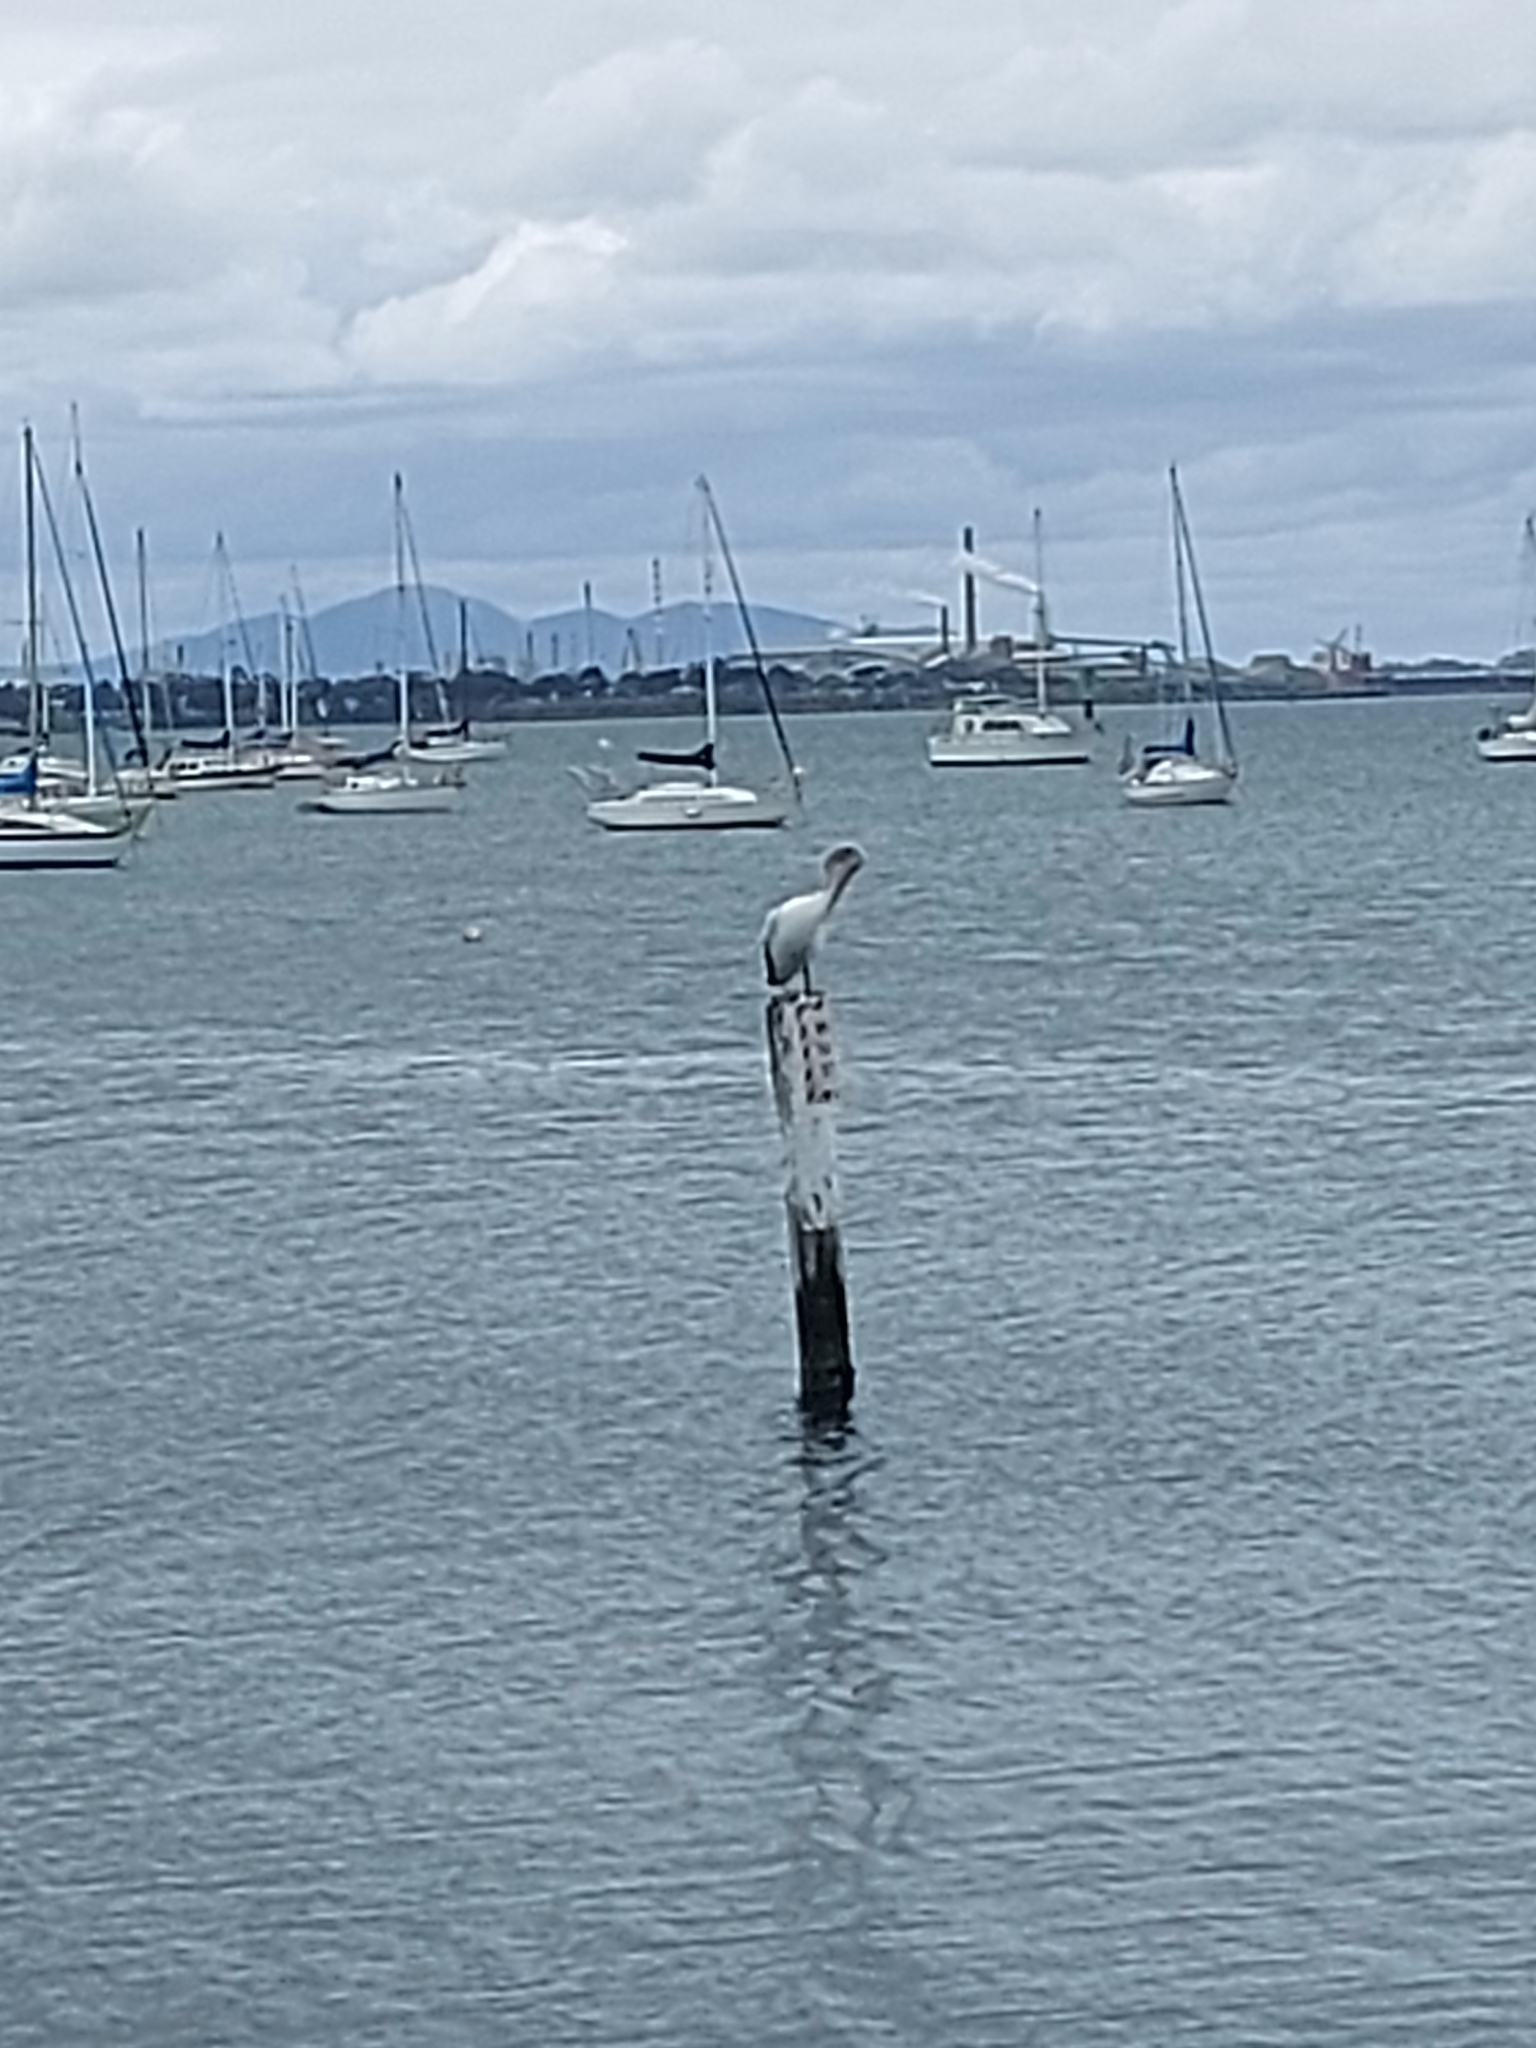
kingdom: Animalia
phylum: Chordata
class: Aves
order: Pelecaniformes
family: Pelecanidae
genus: Pelecanus
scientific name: Pelecanus conspicillatus
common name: Australian pelican
